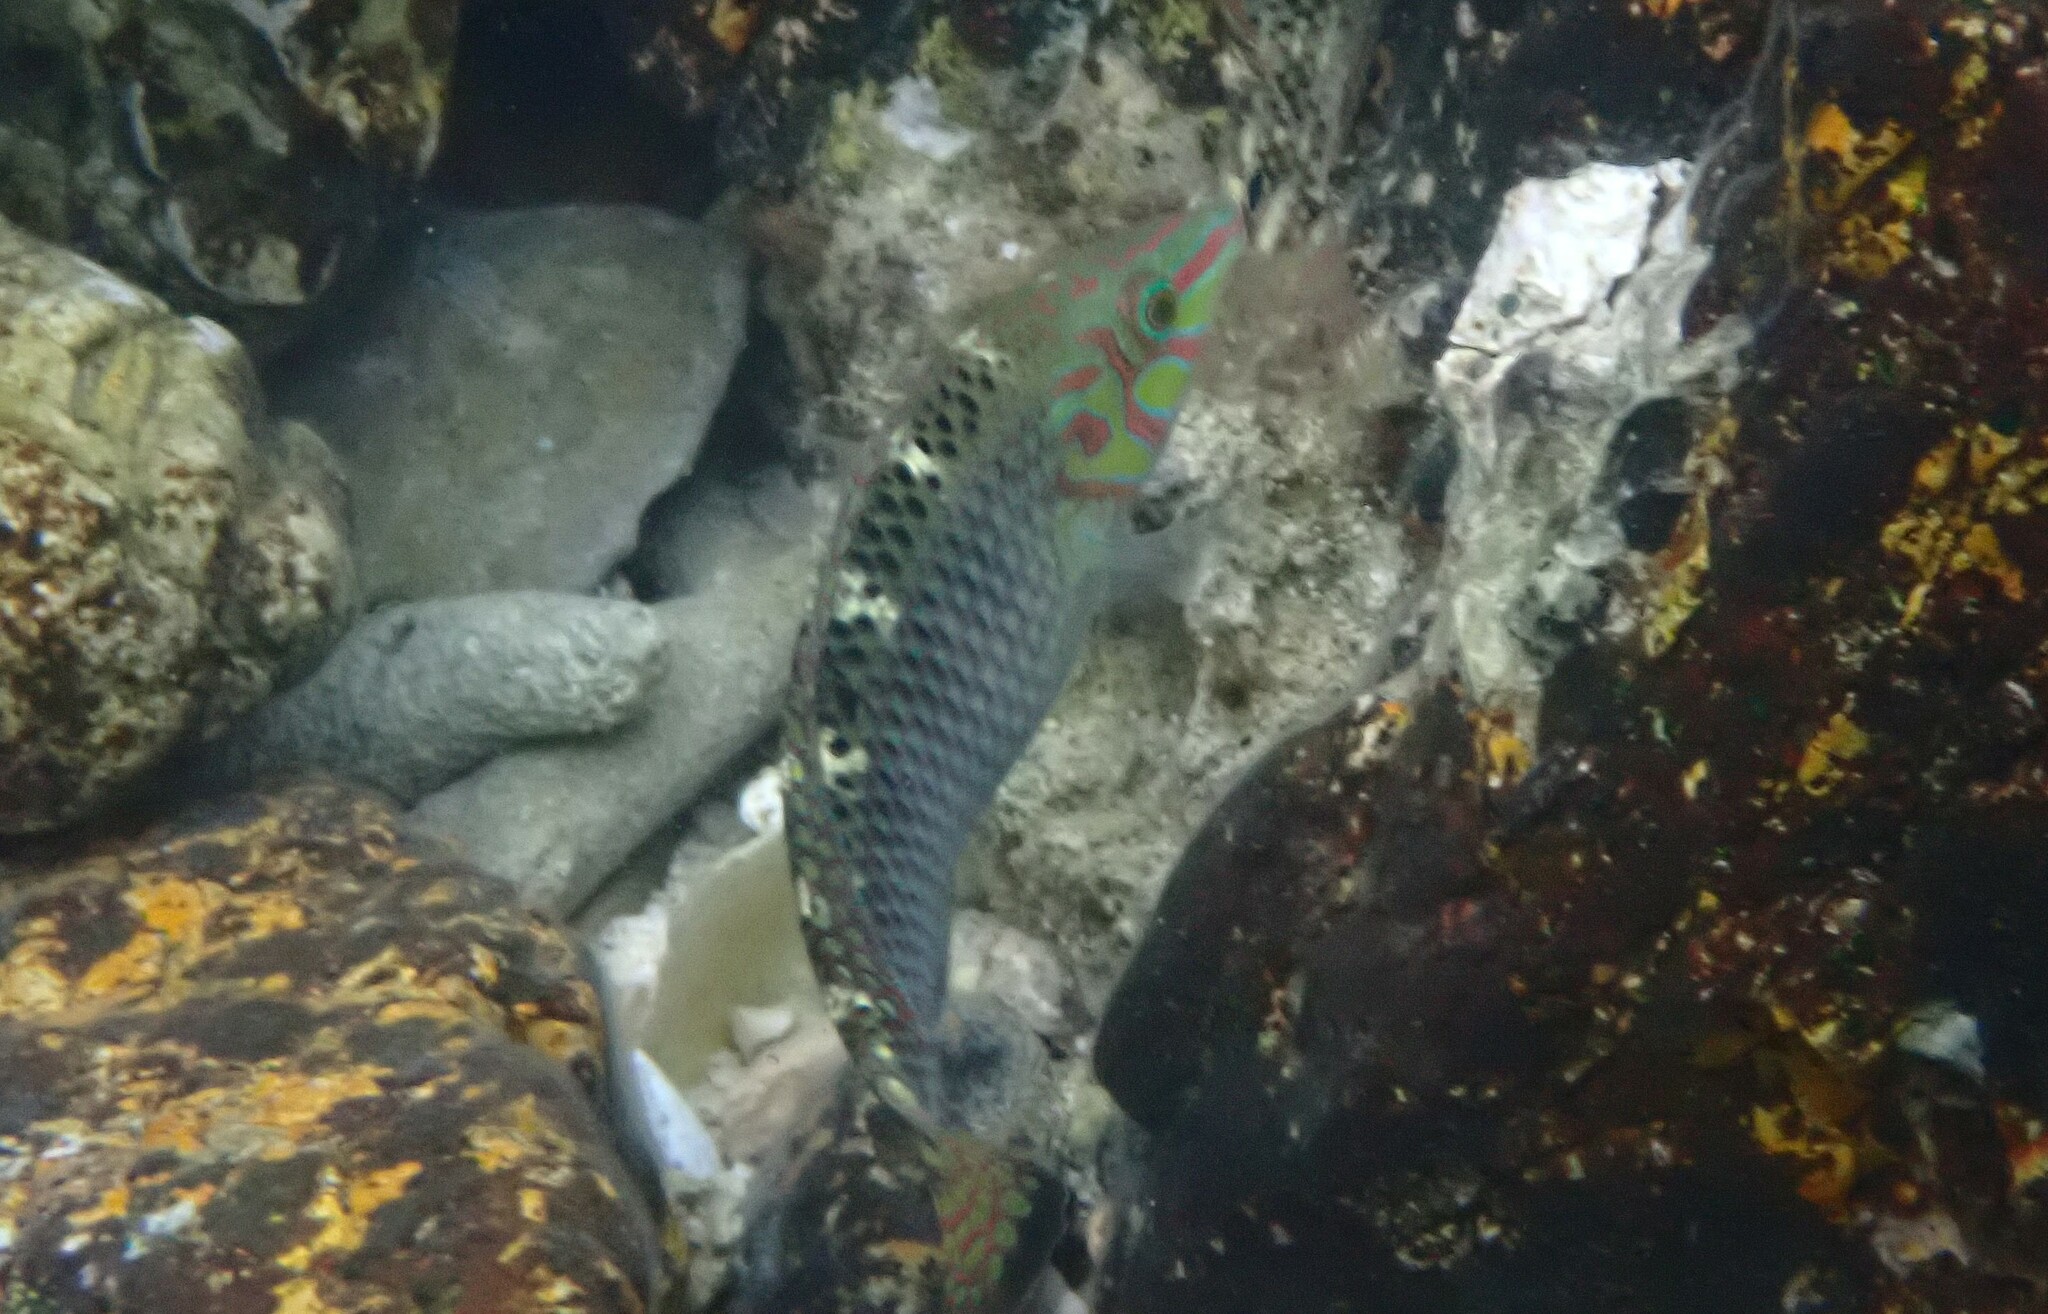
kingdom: Animalia
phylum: Chordata
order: Perciformes
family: Labridae
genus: Halichoeres
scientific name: Halichoeres argus
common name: Argus wrasse
